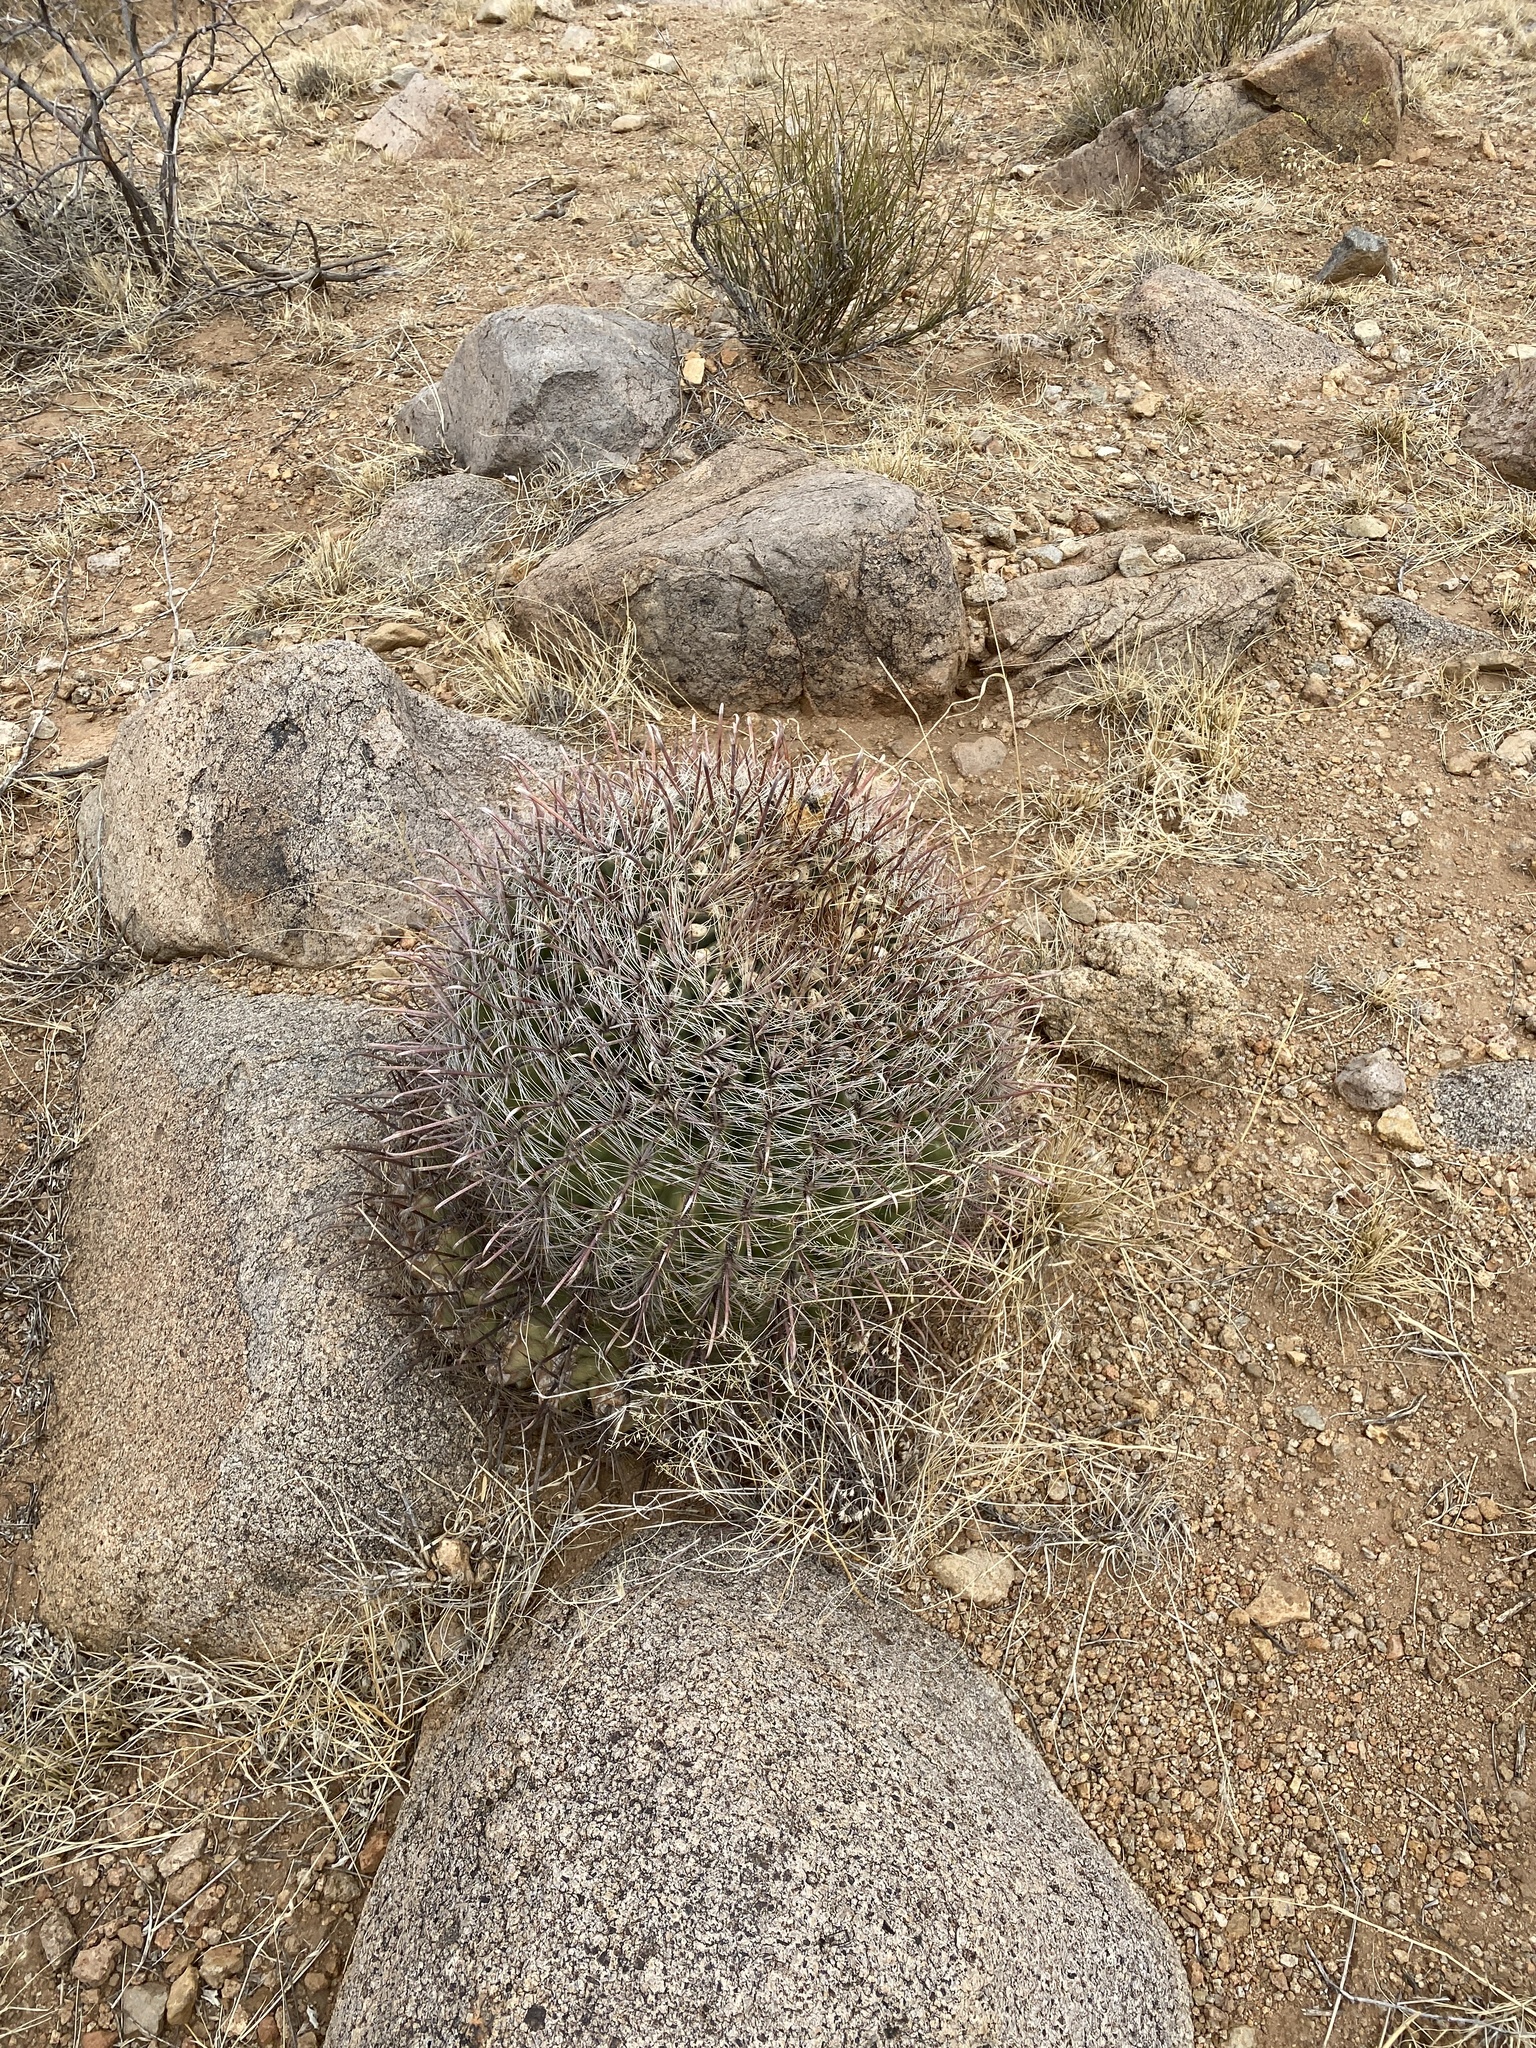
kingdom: Plantae
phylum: Tracheophyta
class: Magnoliopsida
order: Caryophyllales
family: Cactaceae
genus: Ferocactus
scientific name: Ferocactus wislizeni
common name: Candy barrel cactus
